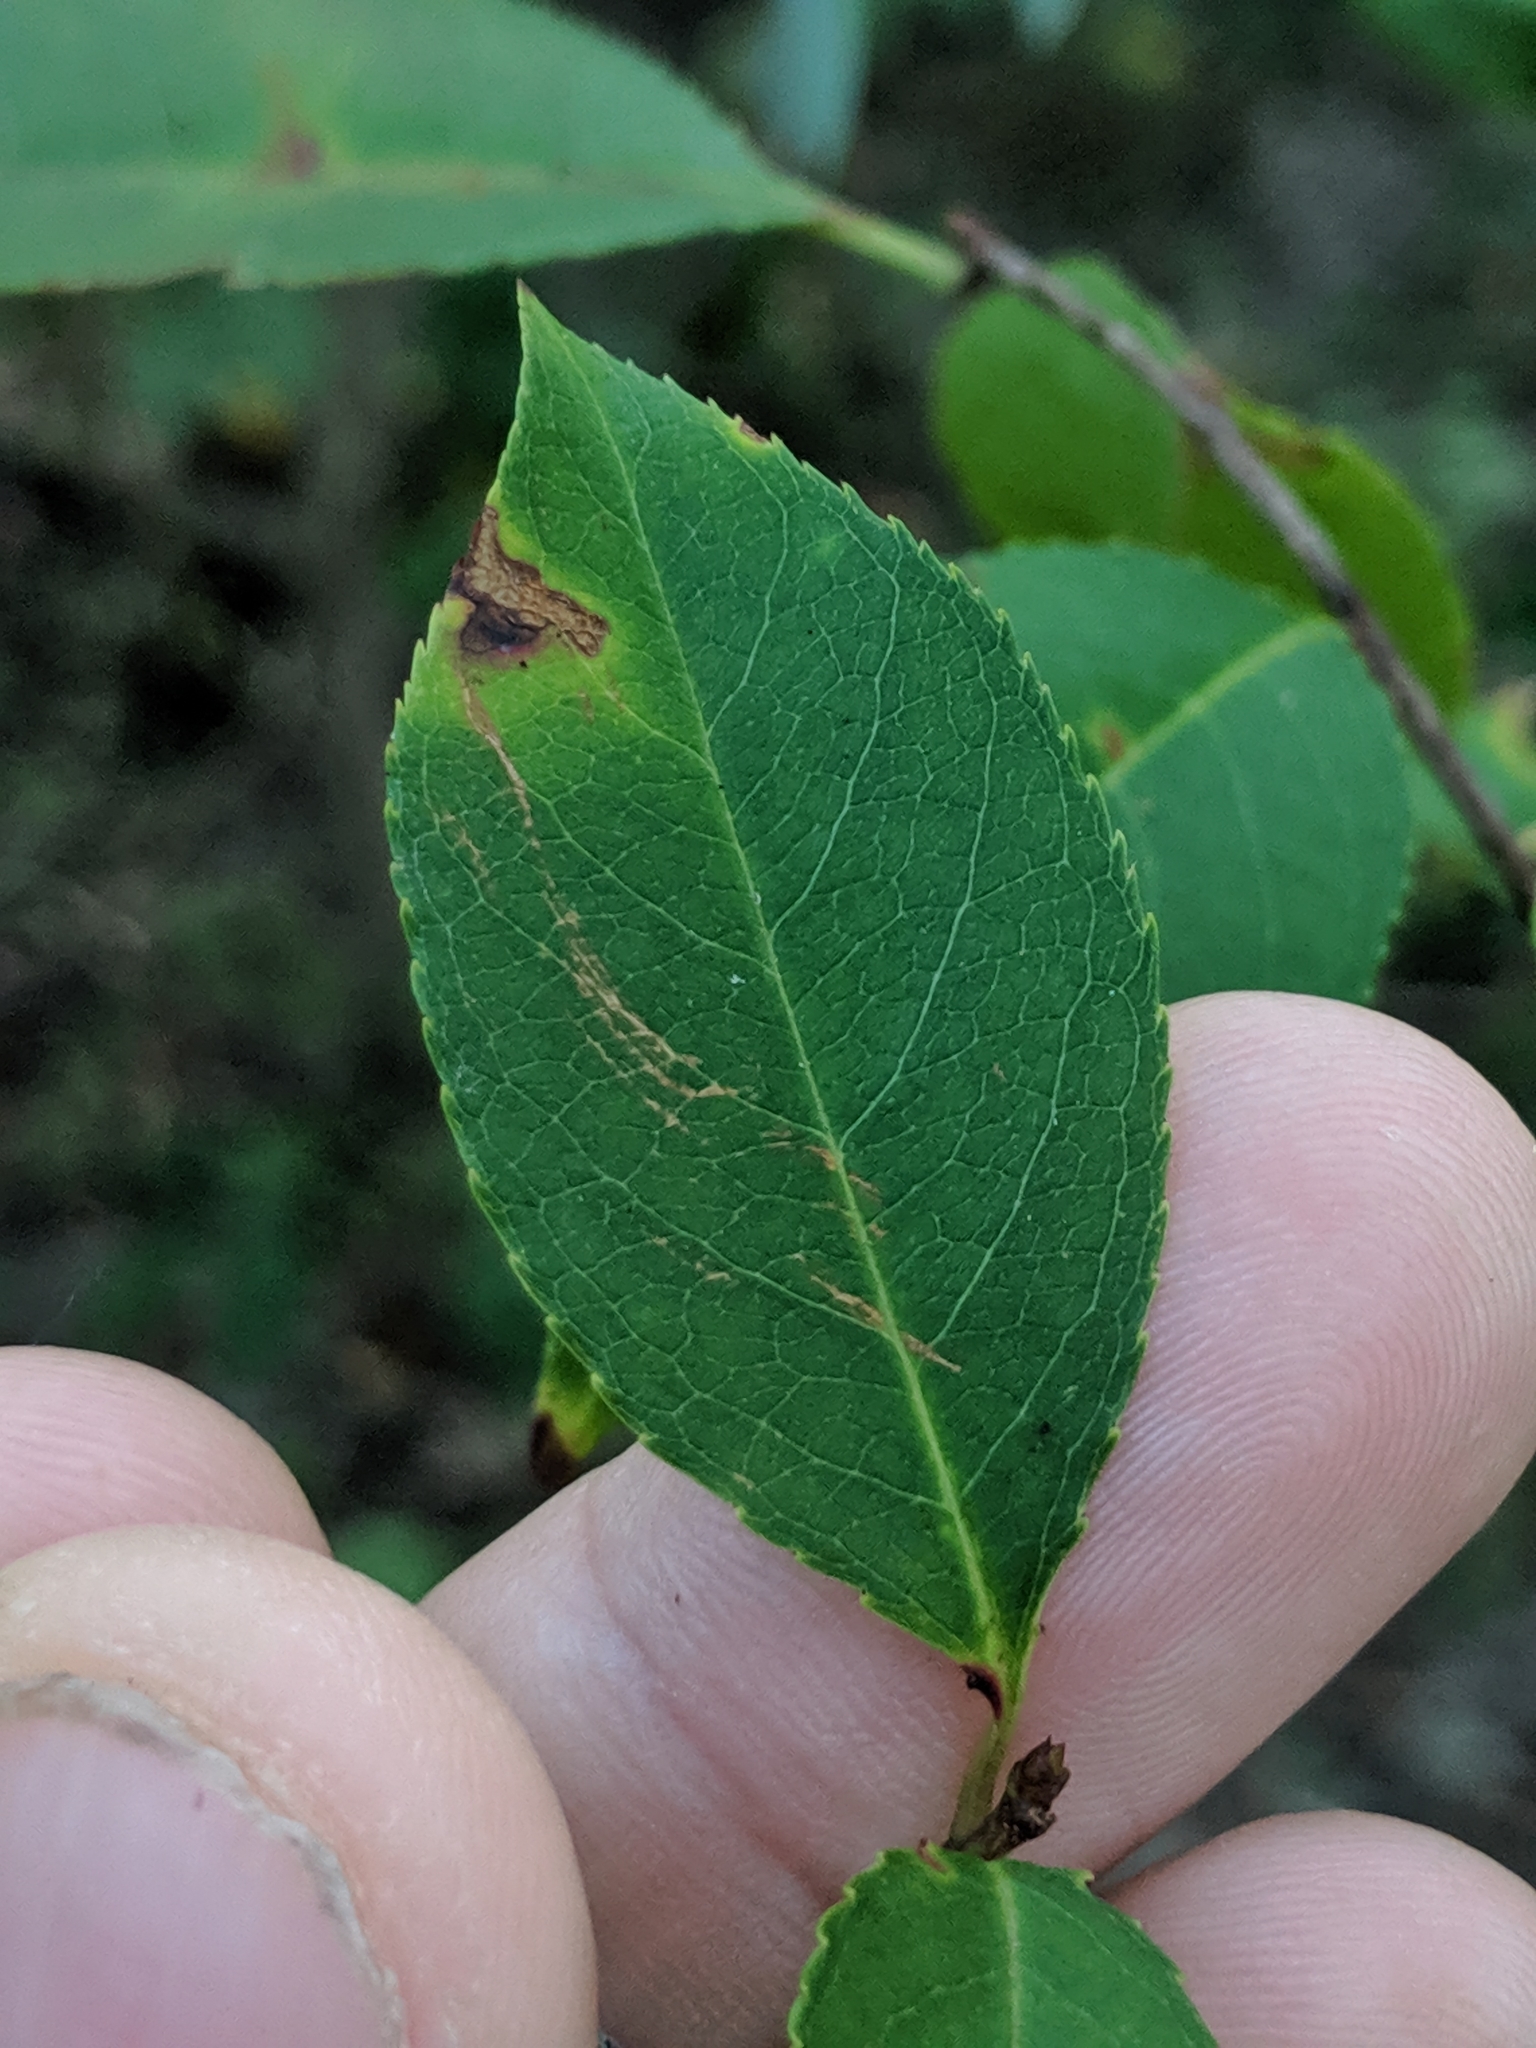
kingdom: Plantae
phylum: Tracheophyta
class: Magnoliopsida
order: Rosales
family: Rosaceae
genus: Prunus
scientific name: Prunus serotina
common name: Black cherry
